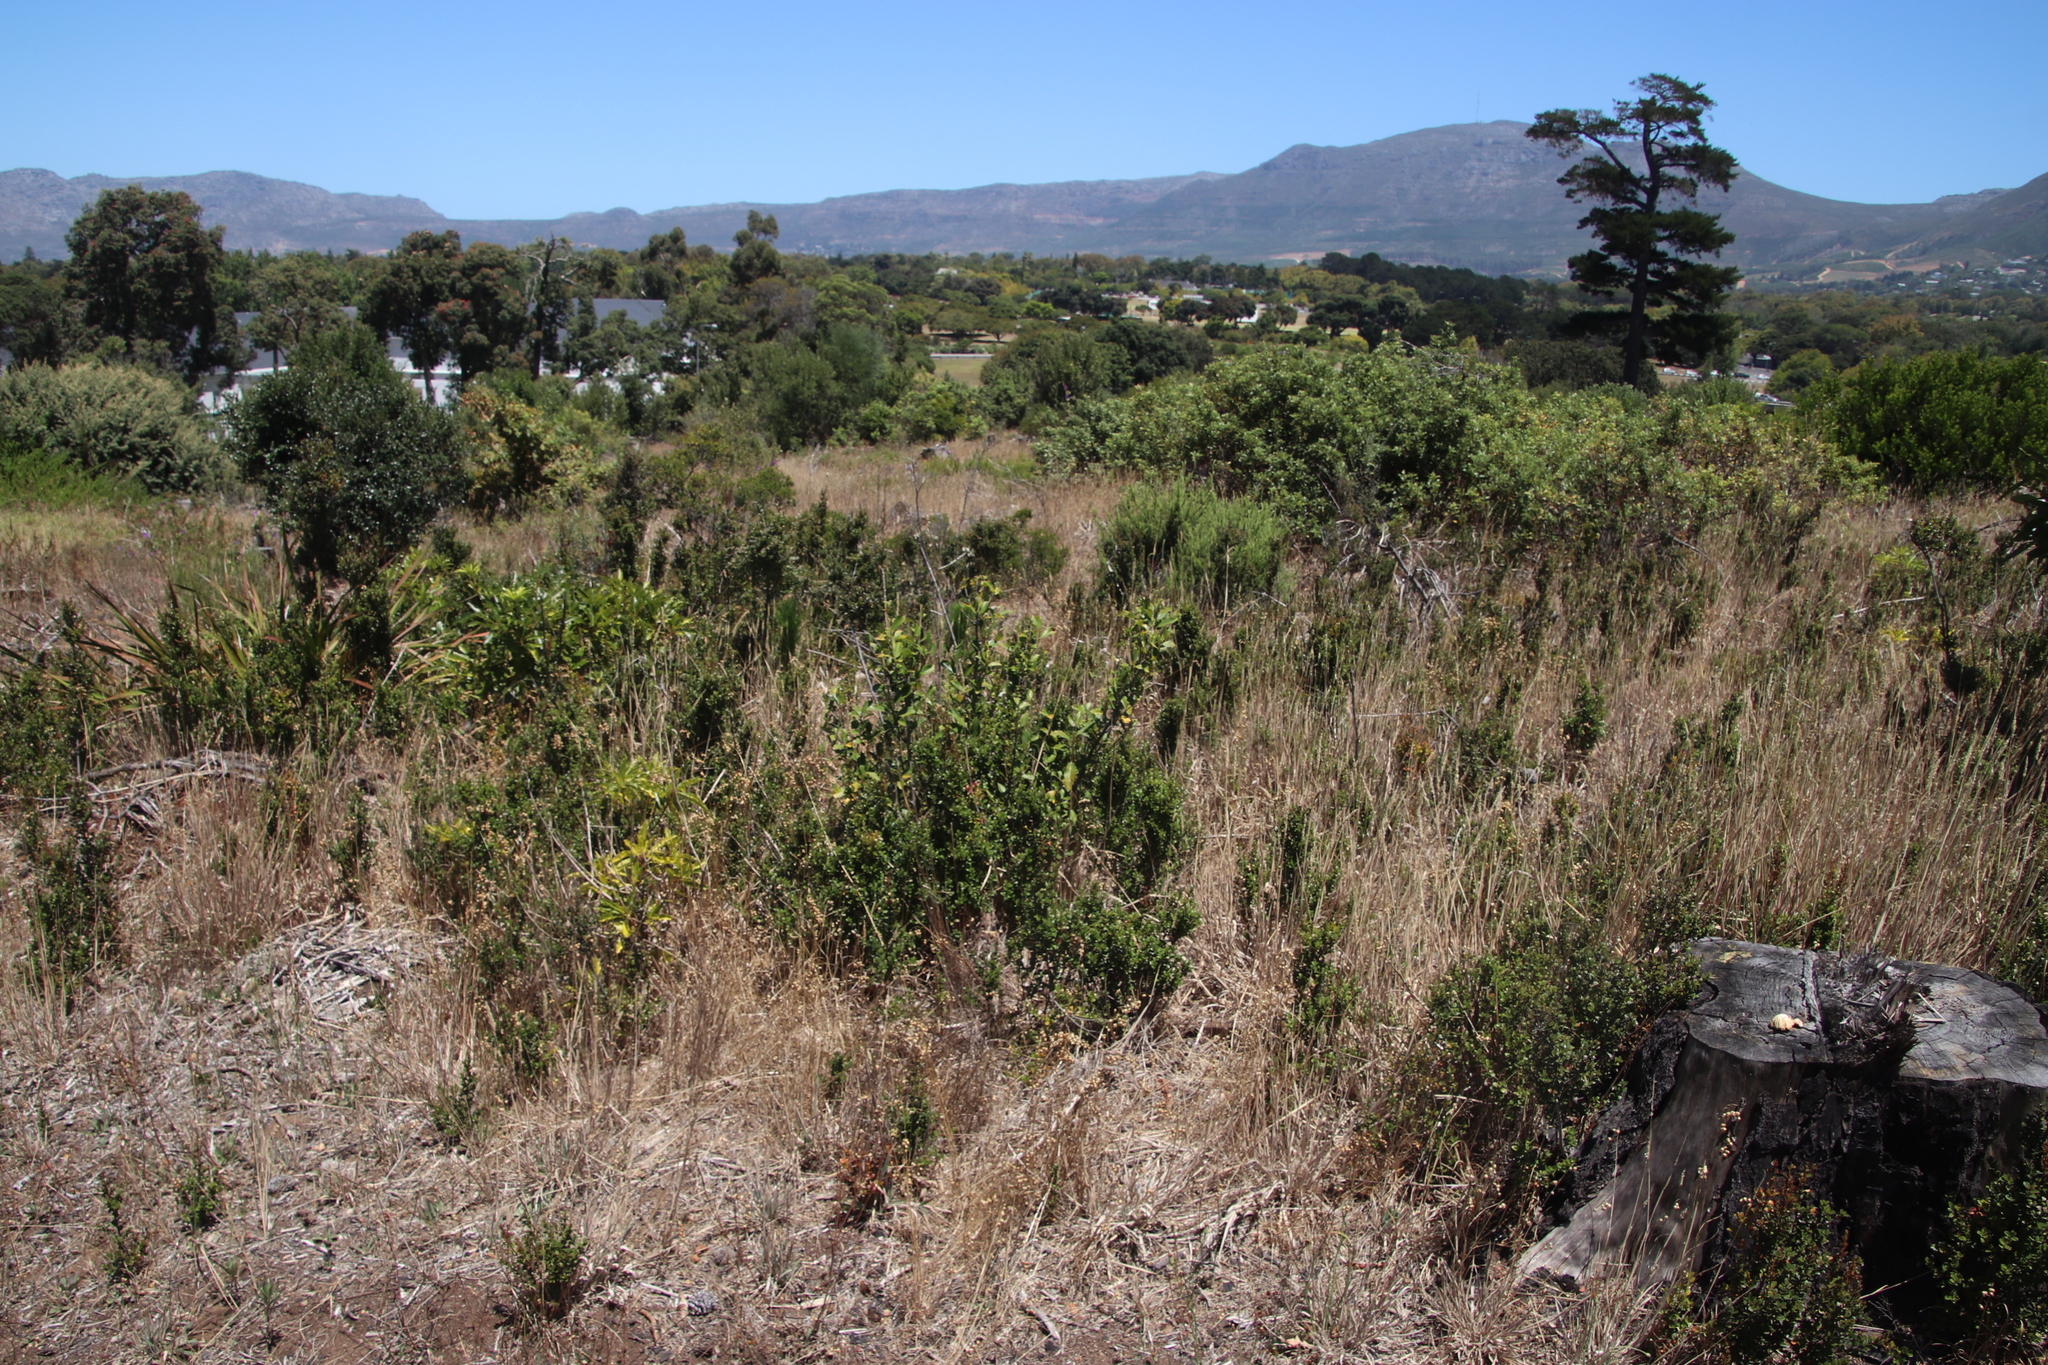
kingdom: Plantae
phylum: Tracheophyta
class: Magnoliopsida
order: Ericales
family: Primulaceae
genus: Myrsine
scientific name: Myrsine africana
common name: African-boxwood
